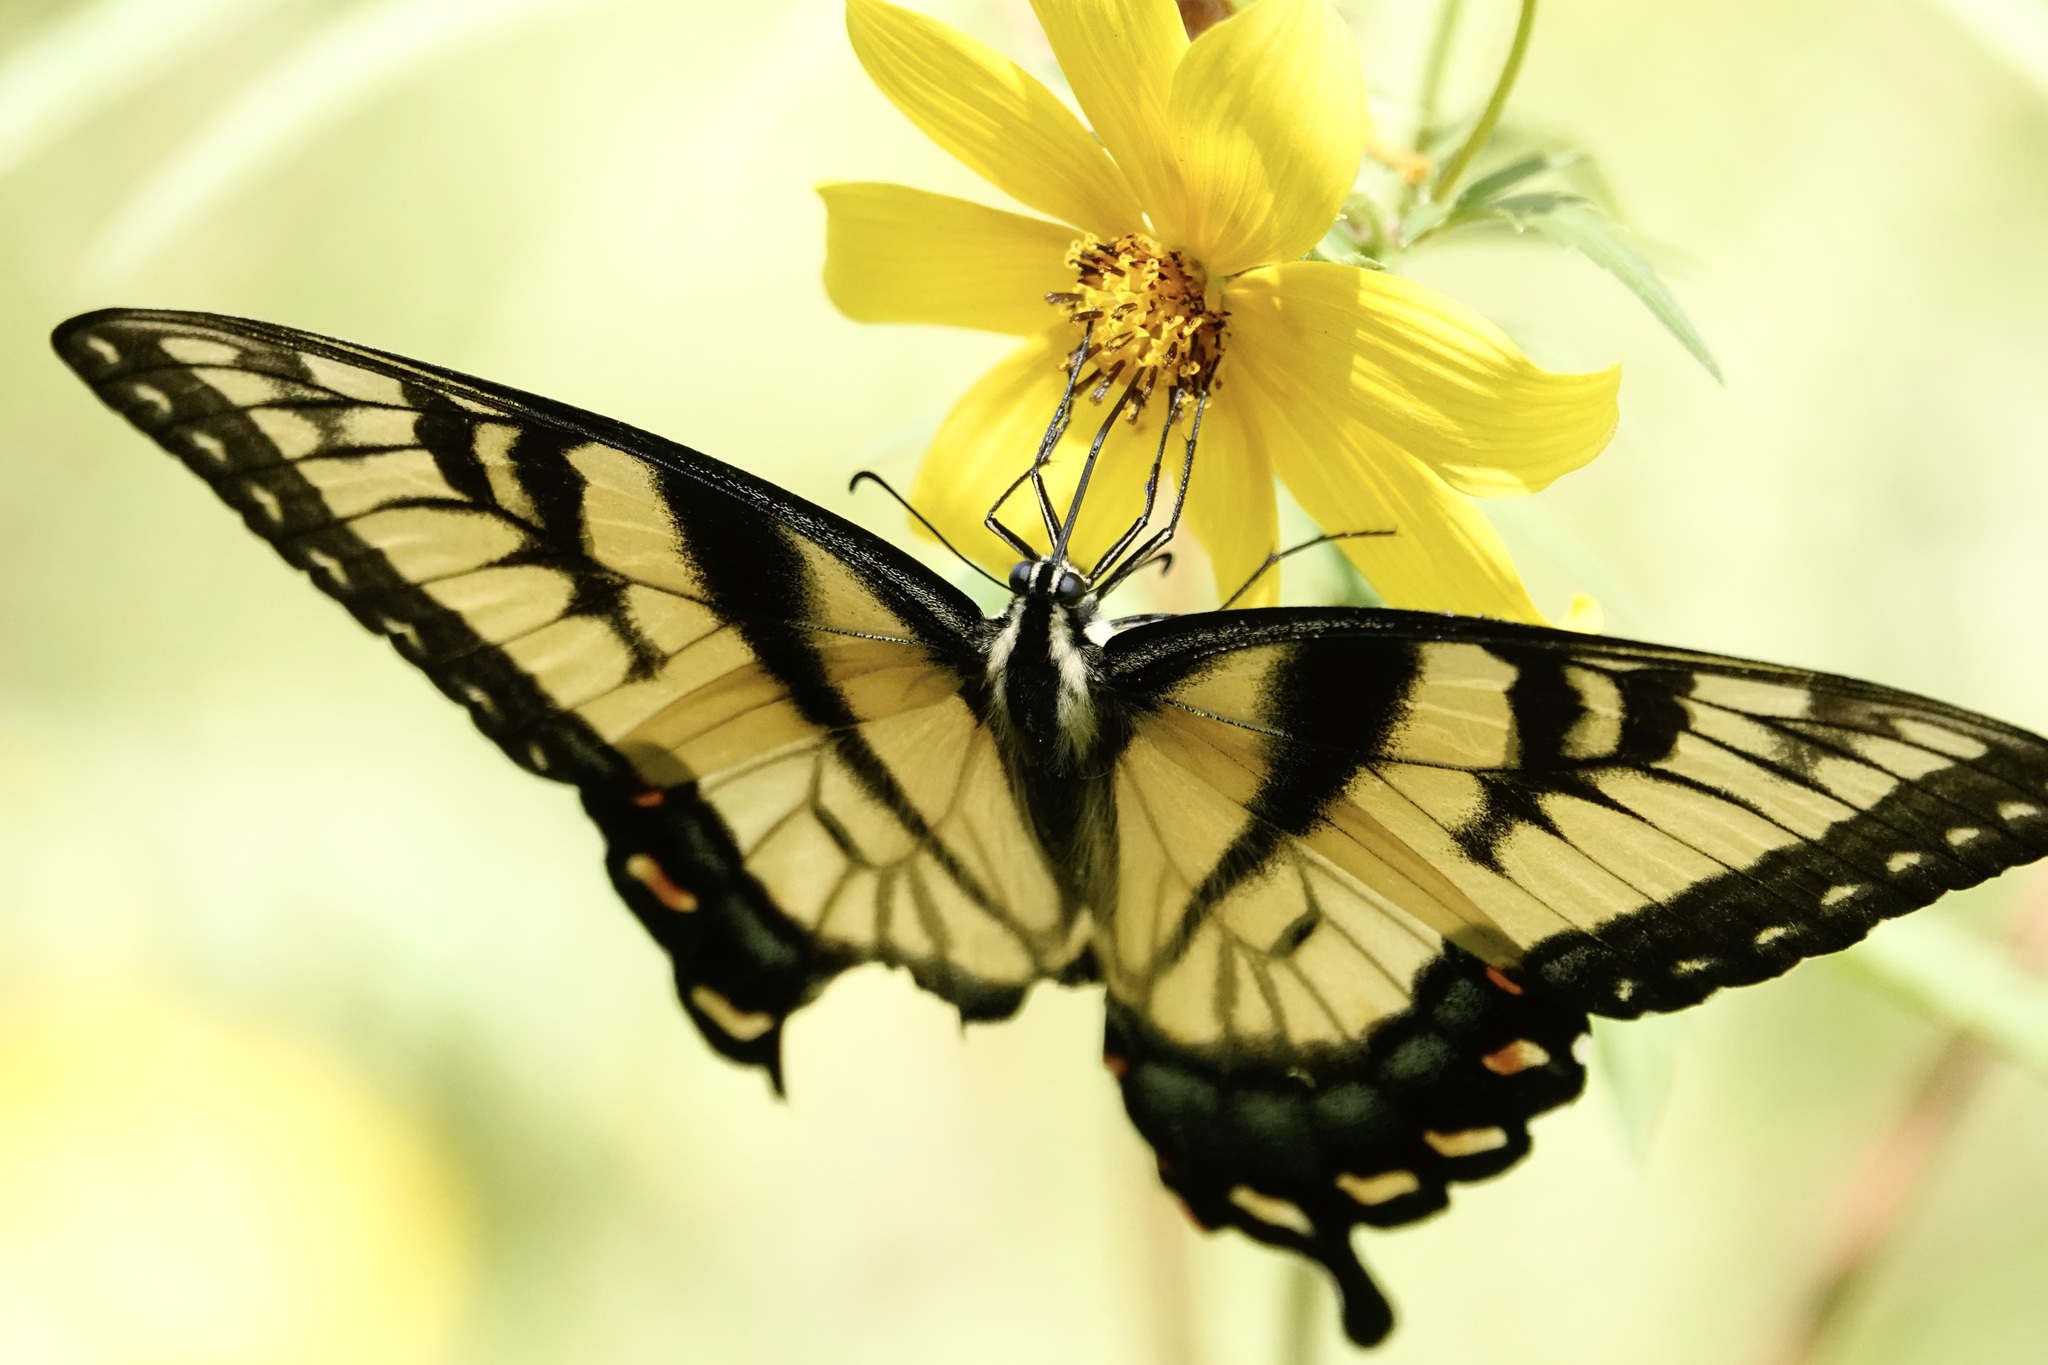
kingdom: Animalia
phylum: Arthropoda
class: Insecta
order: Lepidoptera
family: Papilionidae
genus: Papilio
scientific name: Papilio glaucus
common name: Tiger swallowtail
